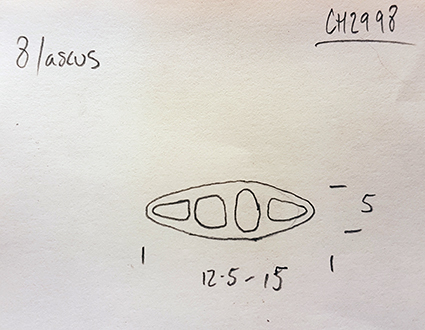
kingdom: Fungi
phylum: Ascomycota
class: Arthoniomycetes
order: Arthoniales
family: Roccellaceae
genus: Mazosia
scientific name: Mazosia melanophthalma
